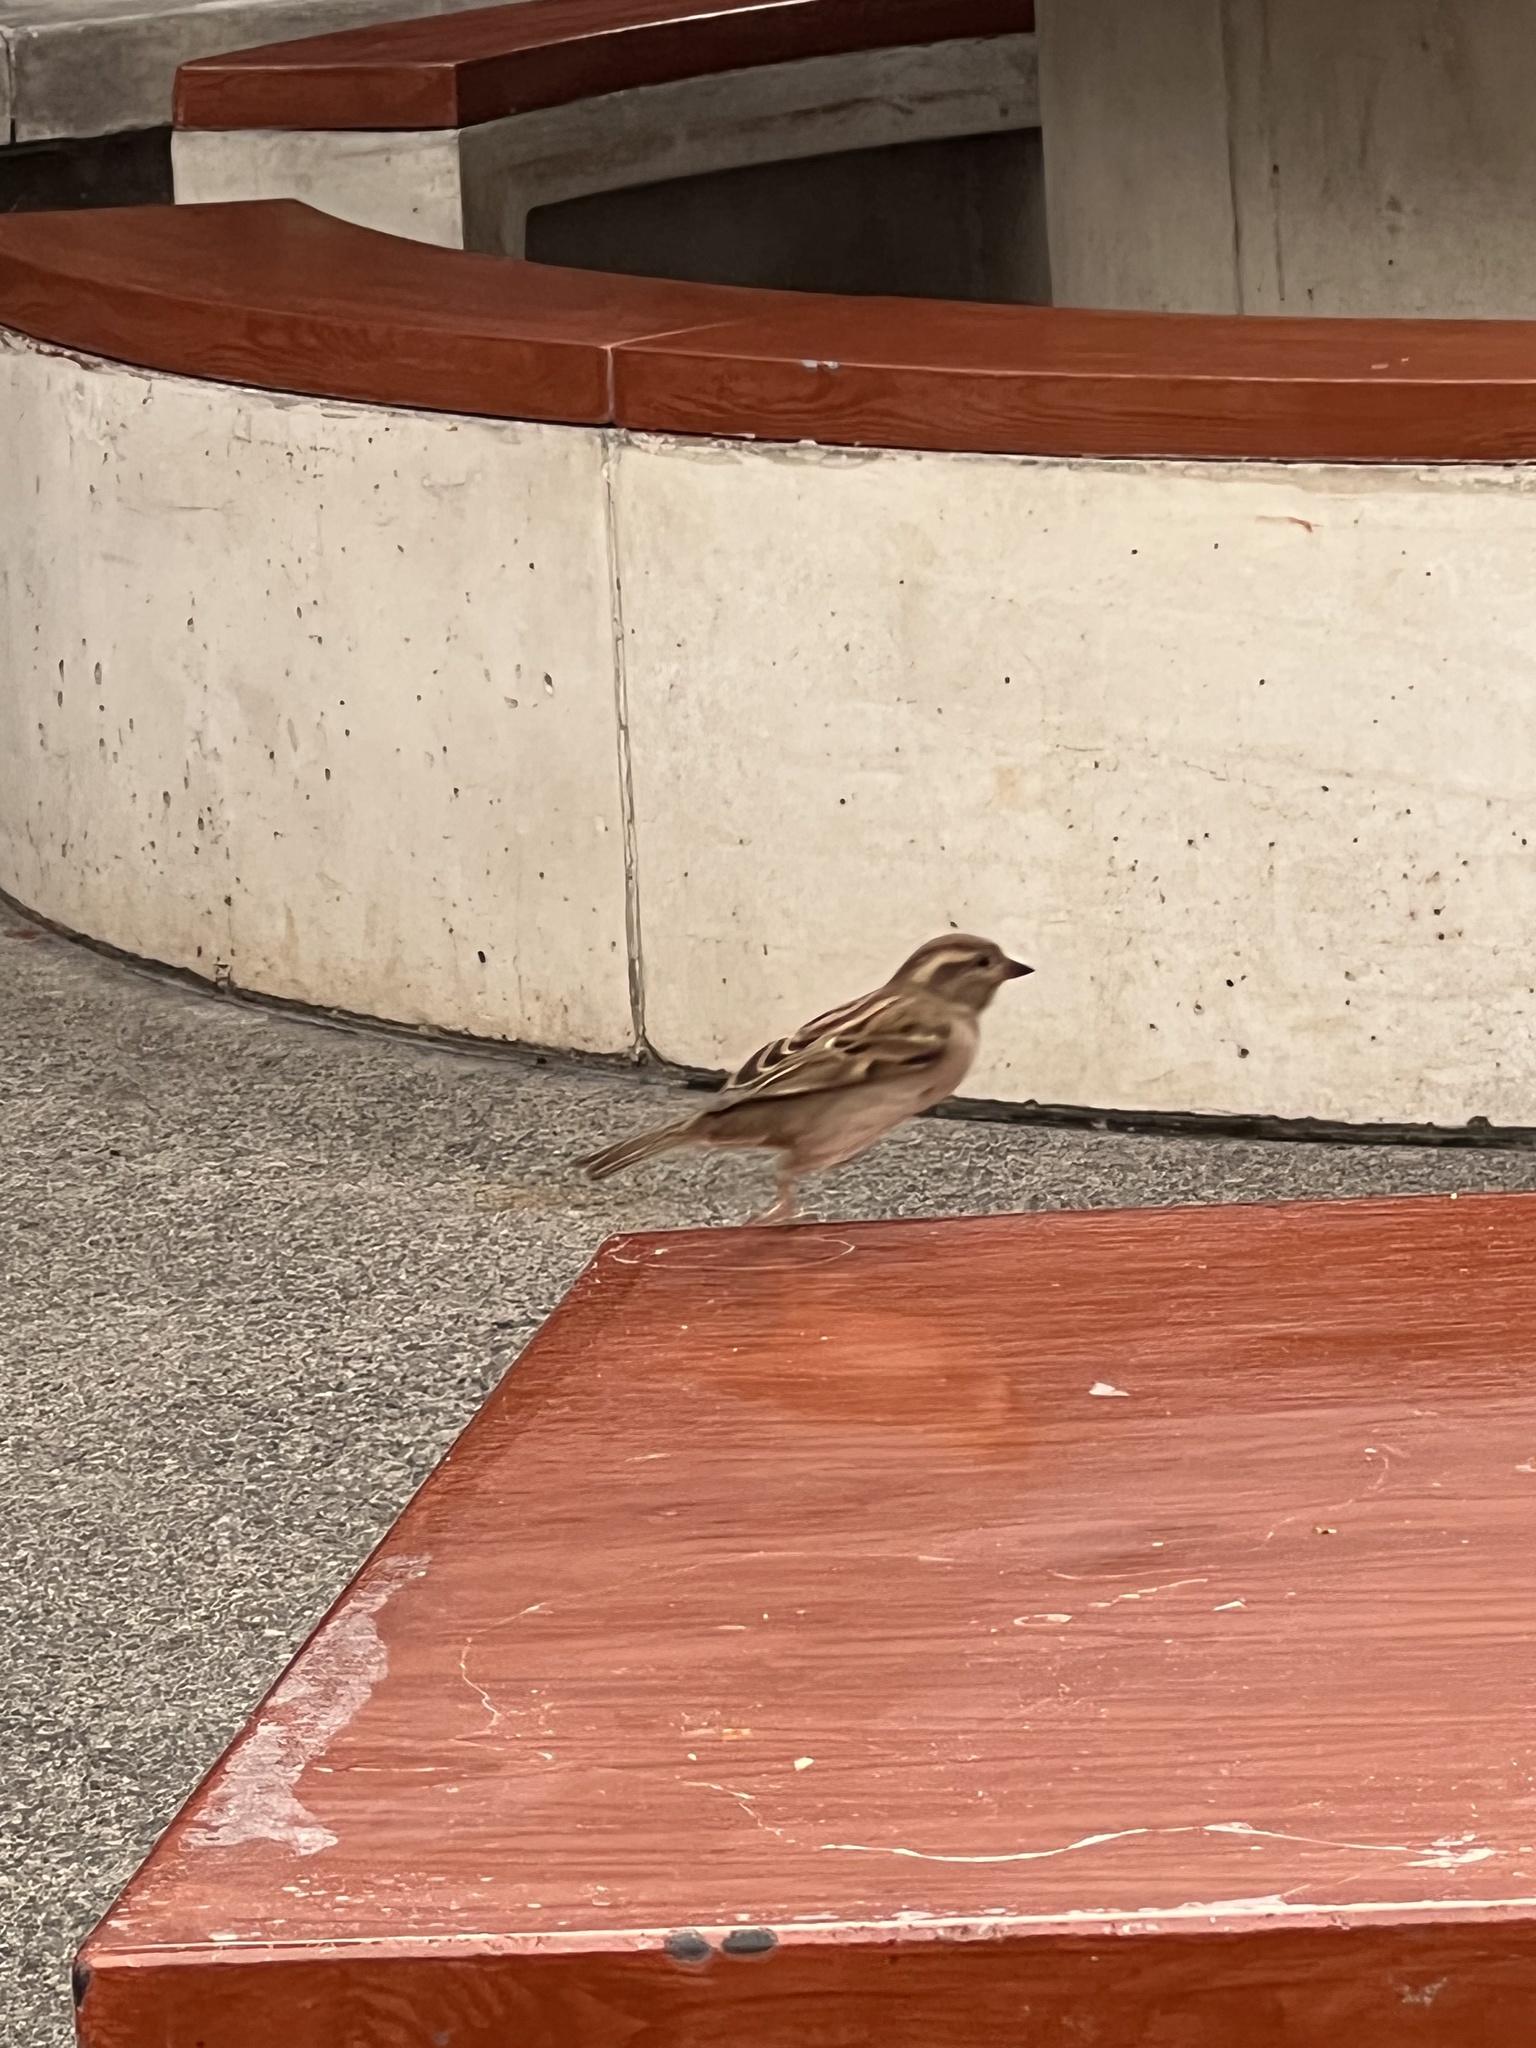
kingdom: Animalia
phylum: Chordata
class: Aves
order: Passeriformes
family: Passeridae
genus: Passer
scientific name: Passer domesticus
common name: House sparrow
